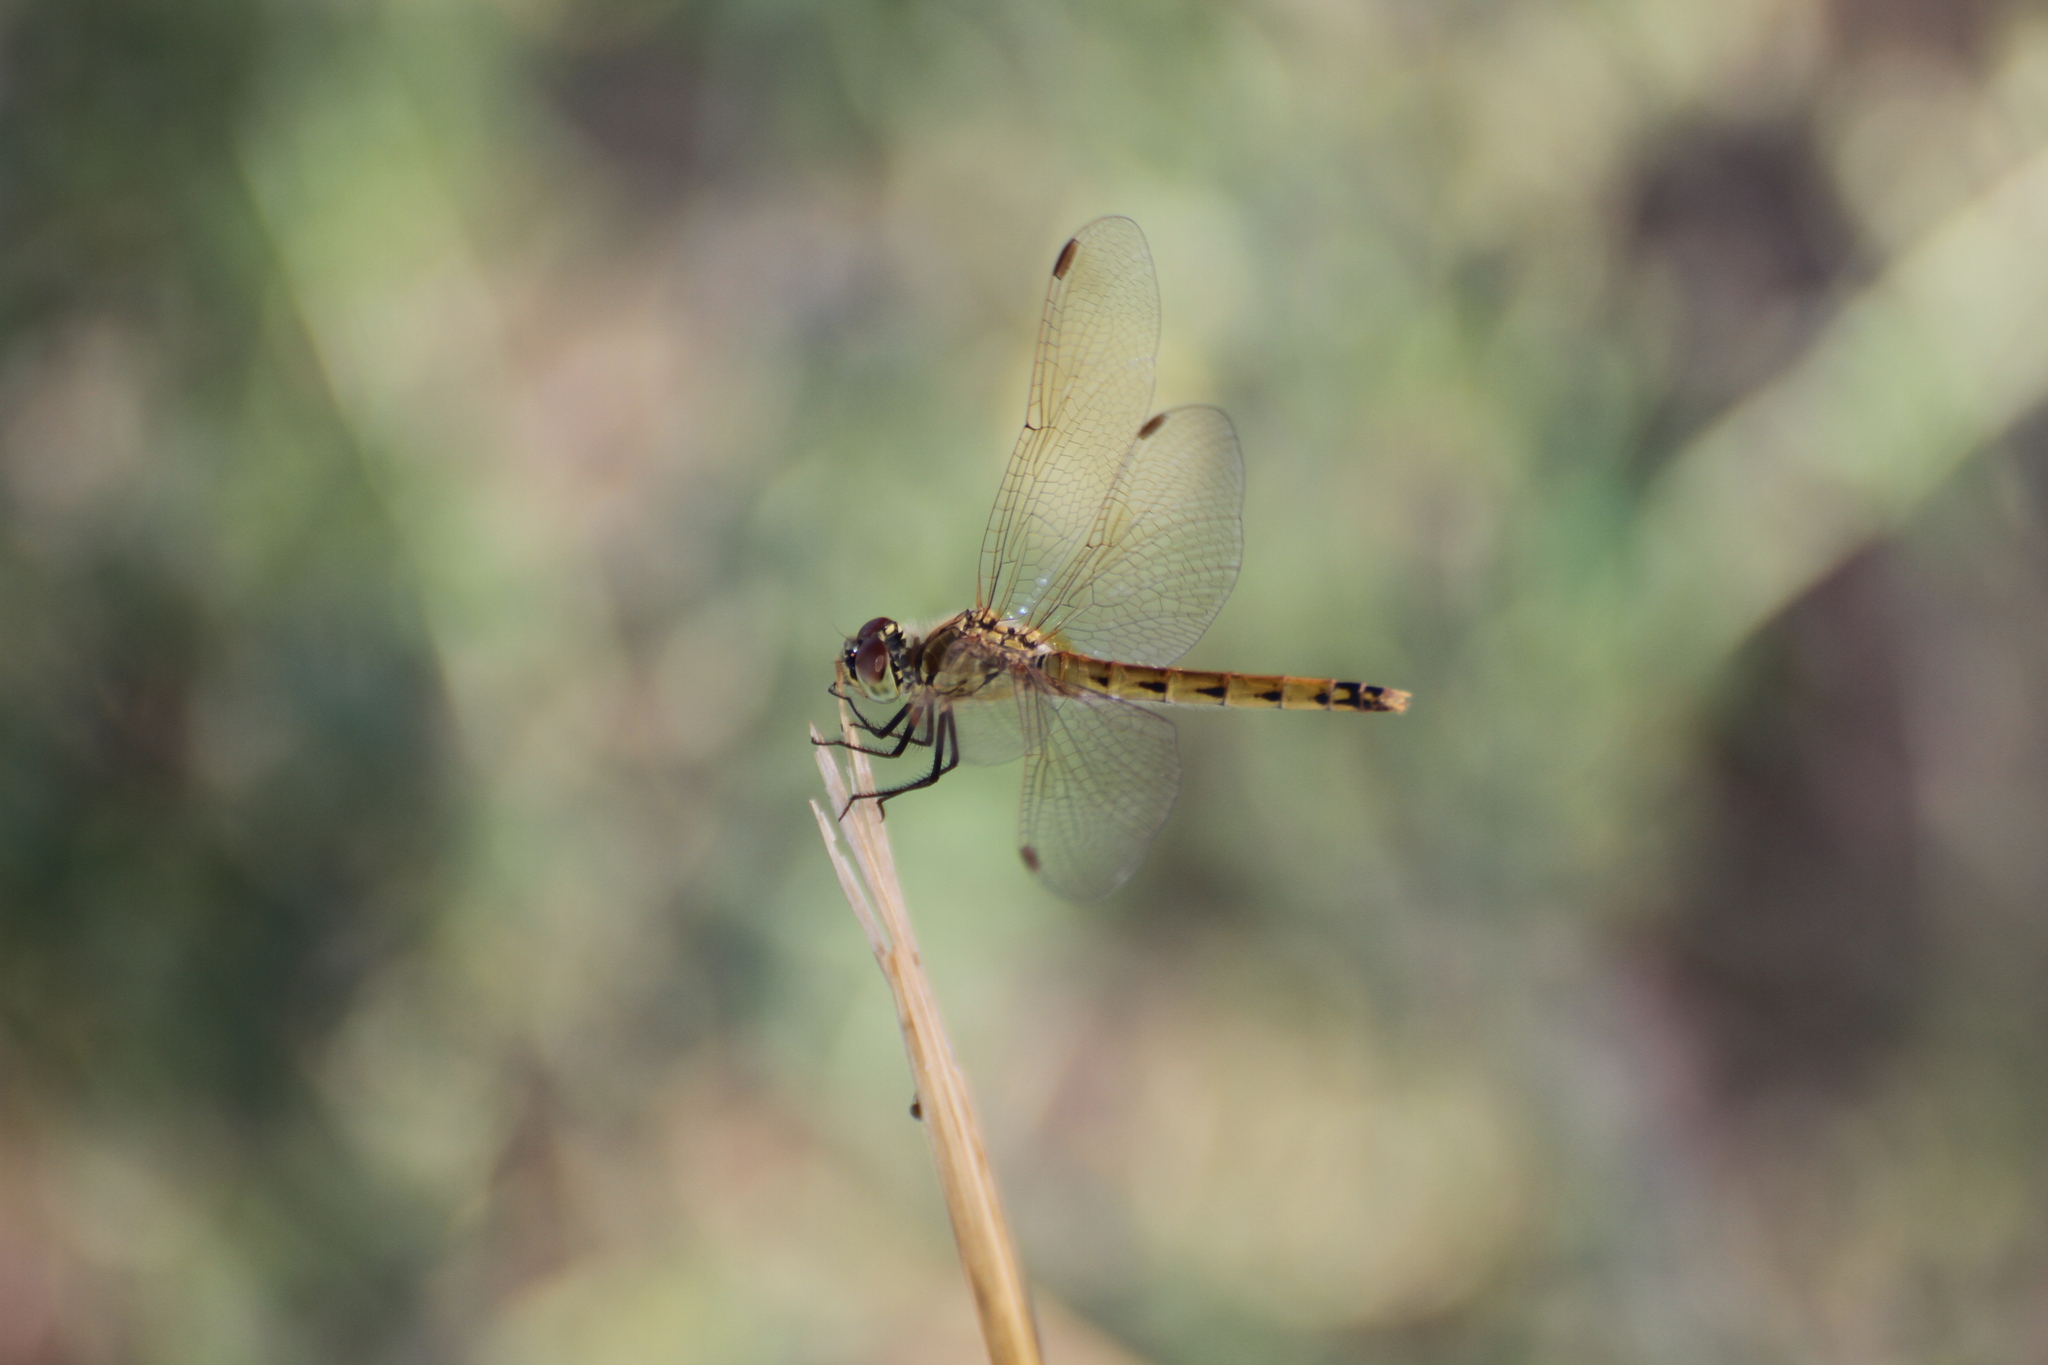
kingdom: Animalia
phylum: Arthropoda
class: Insecta
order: Odonata
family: Libellulidae
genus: Sympetrum
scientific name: Sympetrum depressiusculum
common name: Spotted darter
